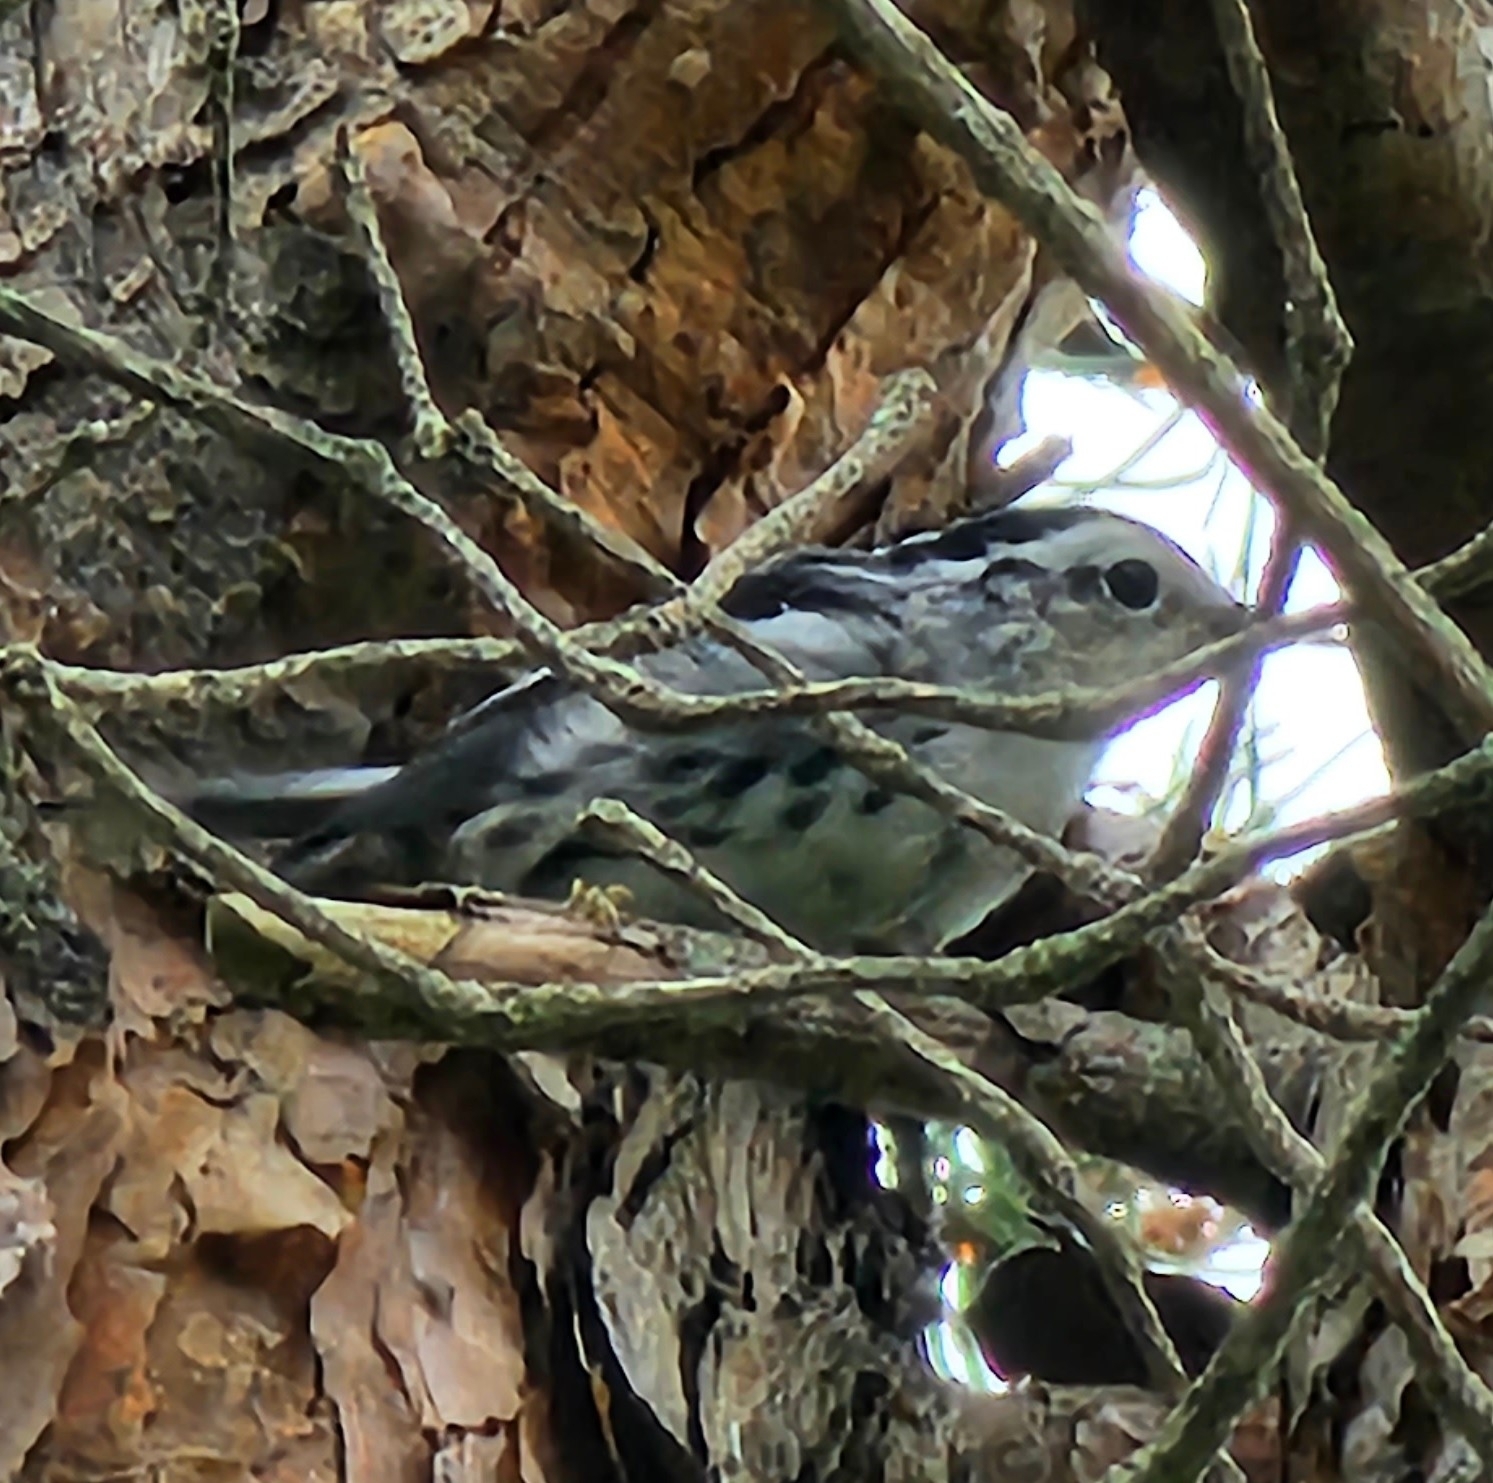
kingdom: Animalia
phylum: Chordata
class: Aves
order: Passeriformes
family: Parulidae
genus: Mniotilta
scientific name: Mniotilta varia
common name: Black-and-white warbler
